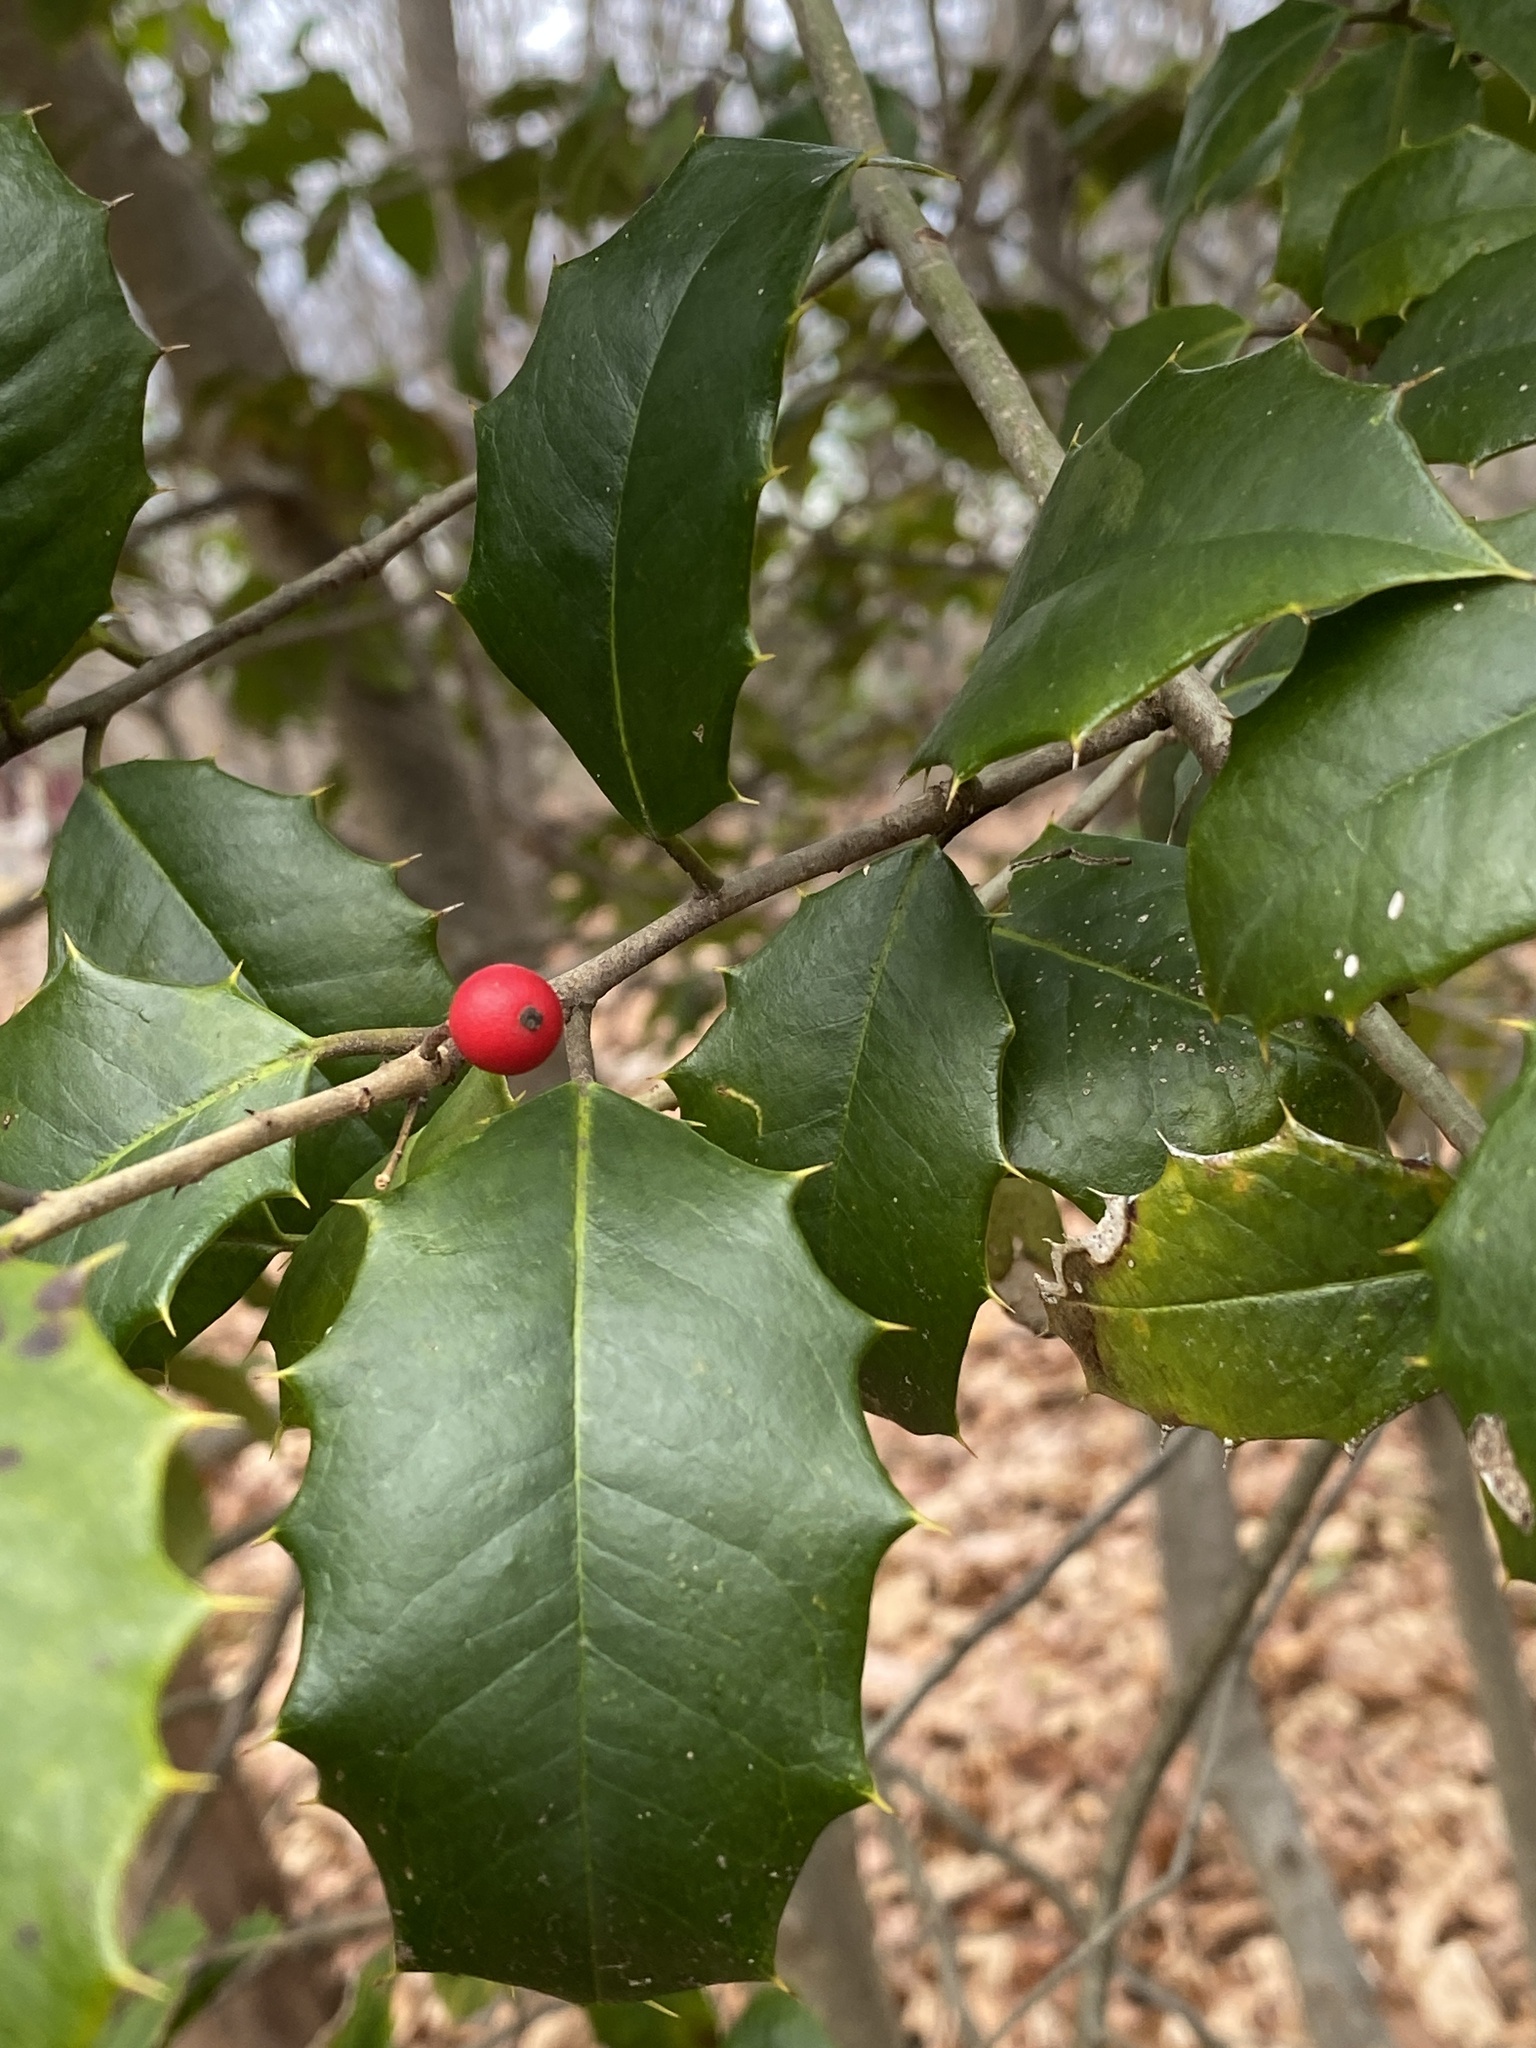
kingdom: Plantae
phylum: Tracheophyta
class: Magnoliopsida
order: Aquifoliales
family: Aquifoliaceae
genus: Ilex
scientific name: Ilex opaca
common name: American holly
